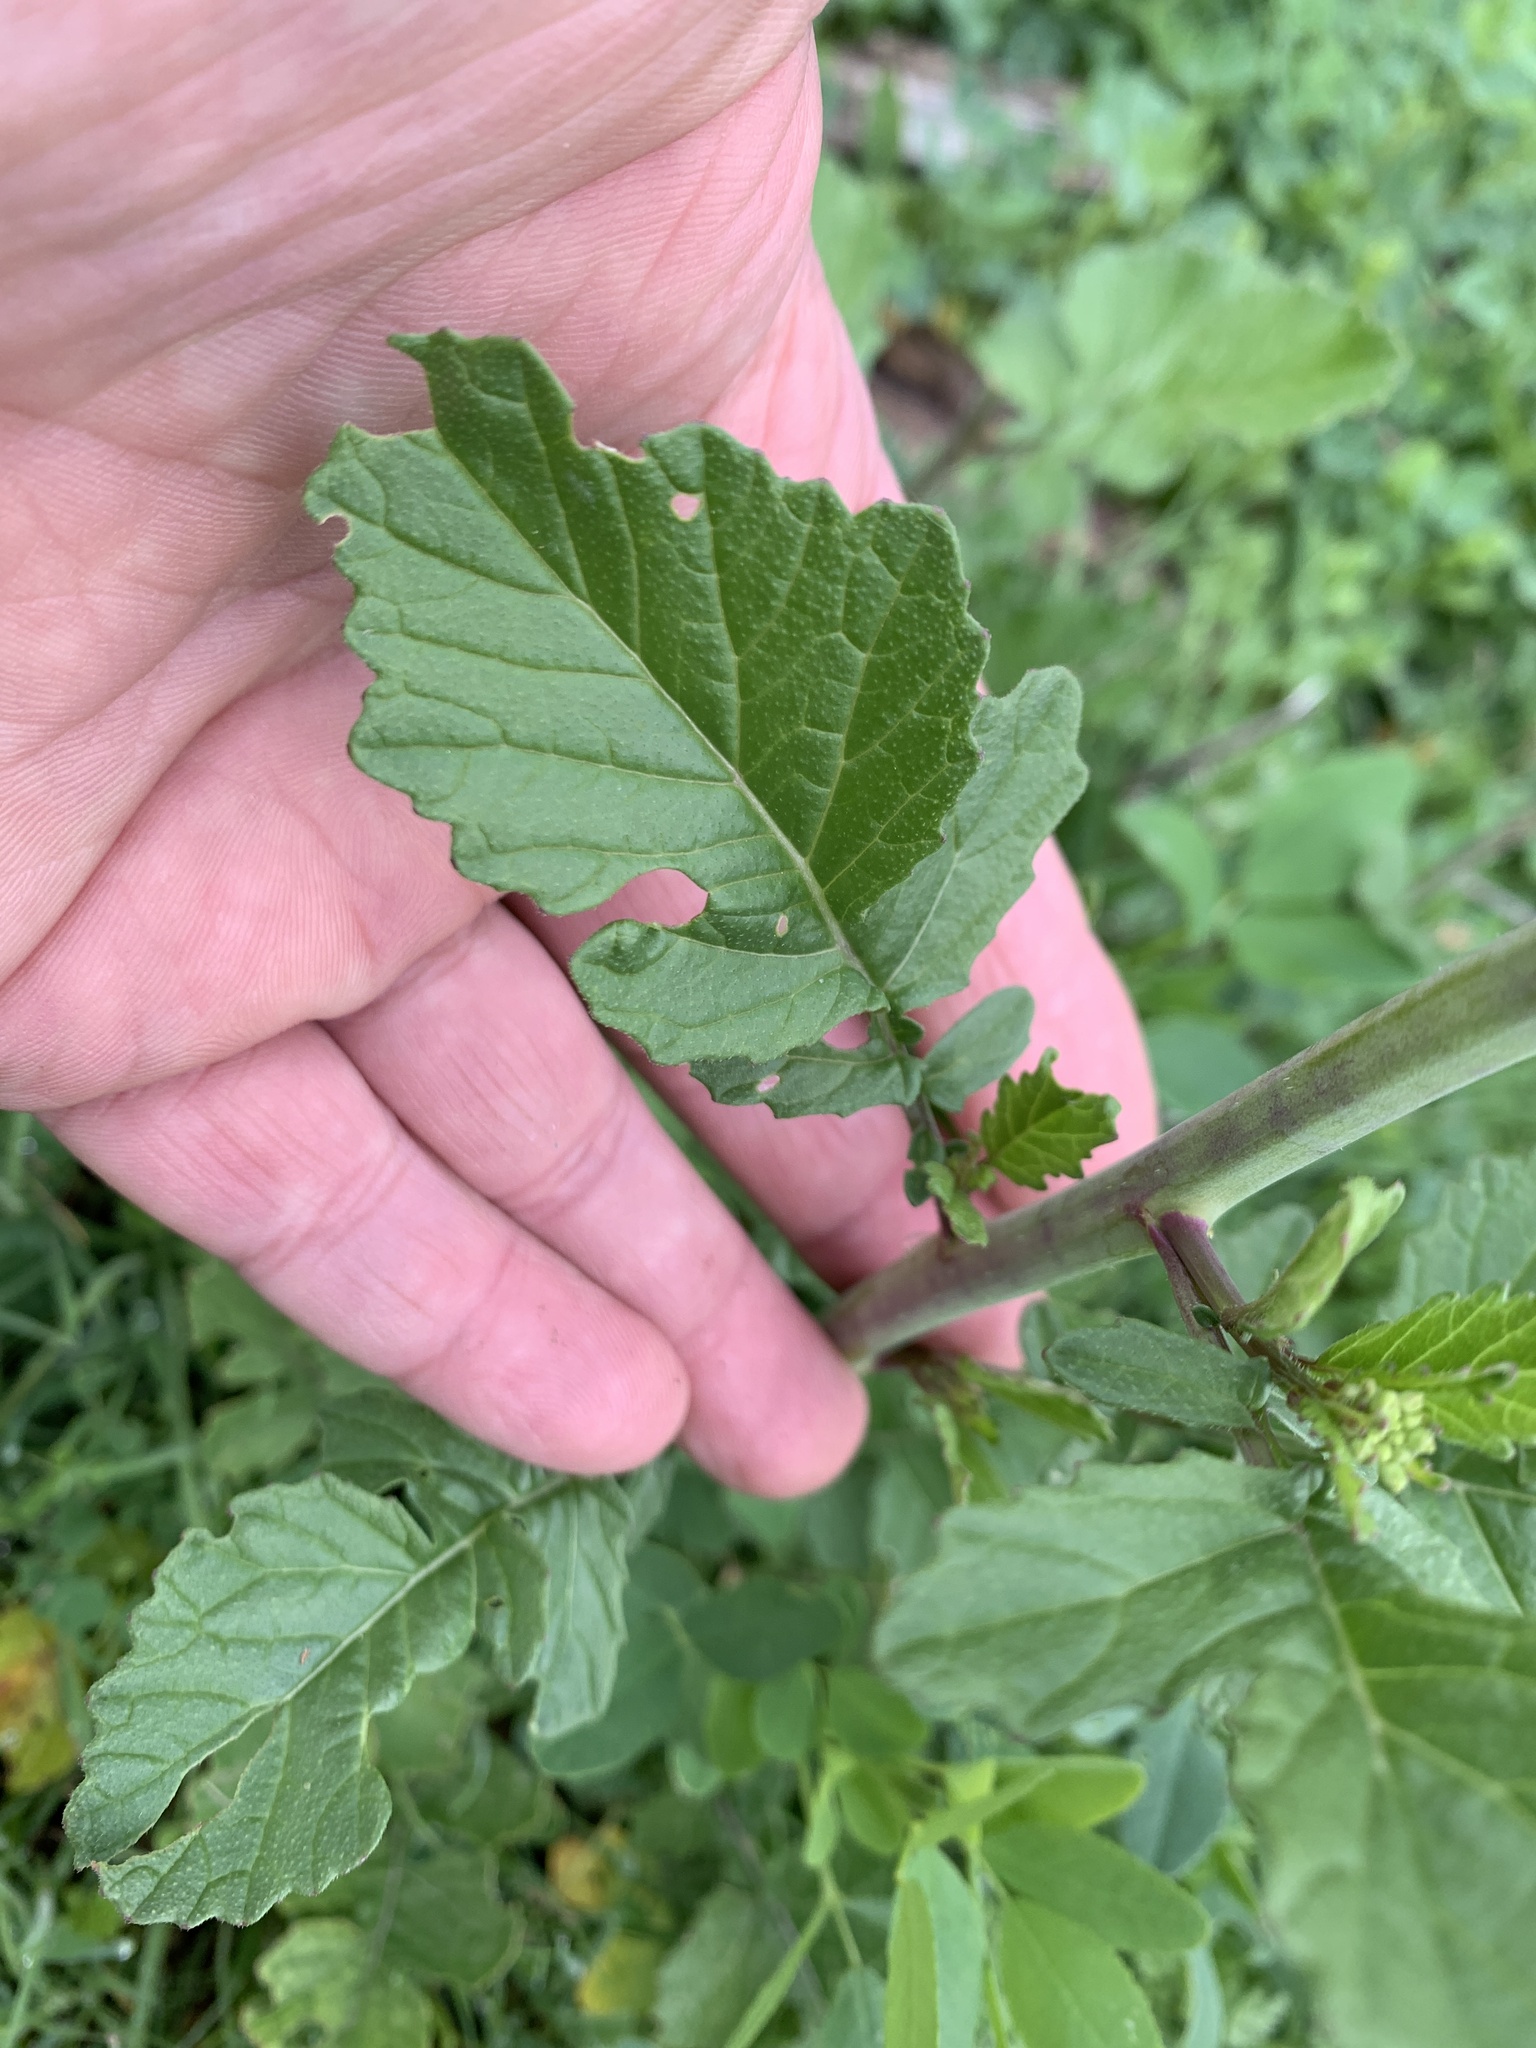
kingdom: Plantae
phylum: Tracheophyta
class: Magnoliopsida
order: Brassicales
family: Brassicaceae
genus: Rapistrum
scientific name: Rapistrum rugosum
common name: Annual bastardcabbage
